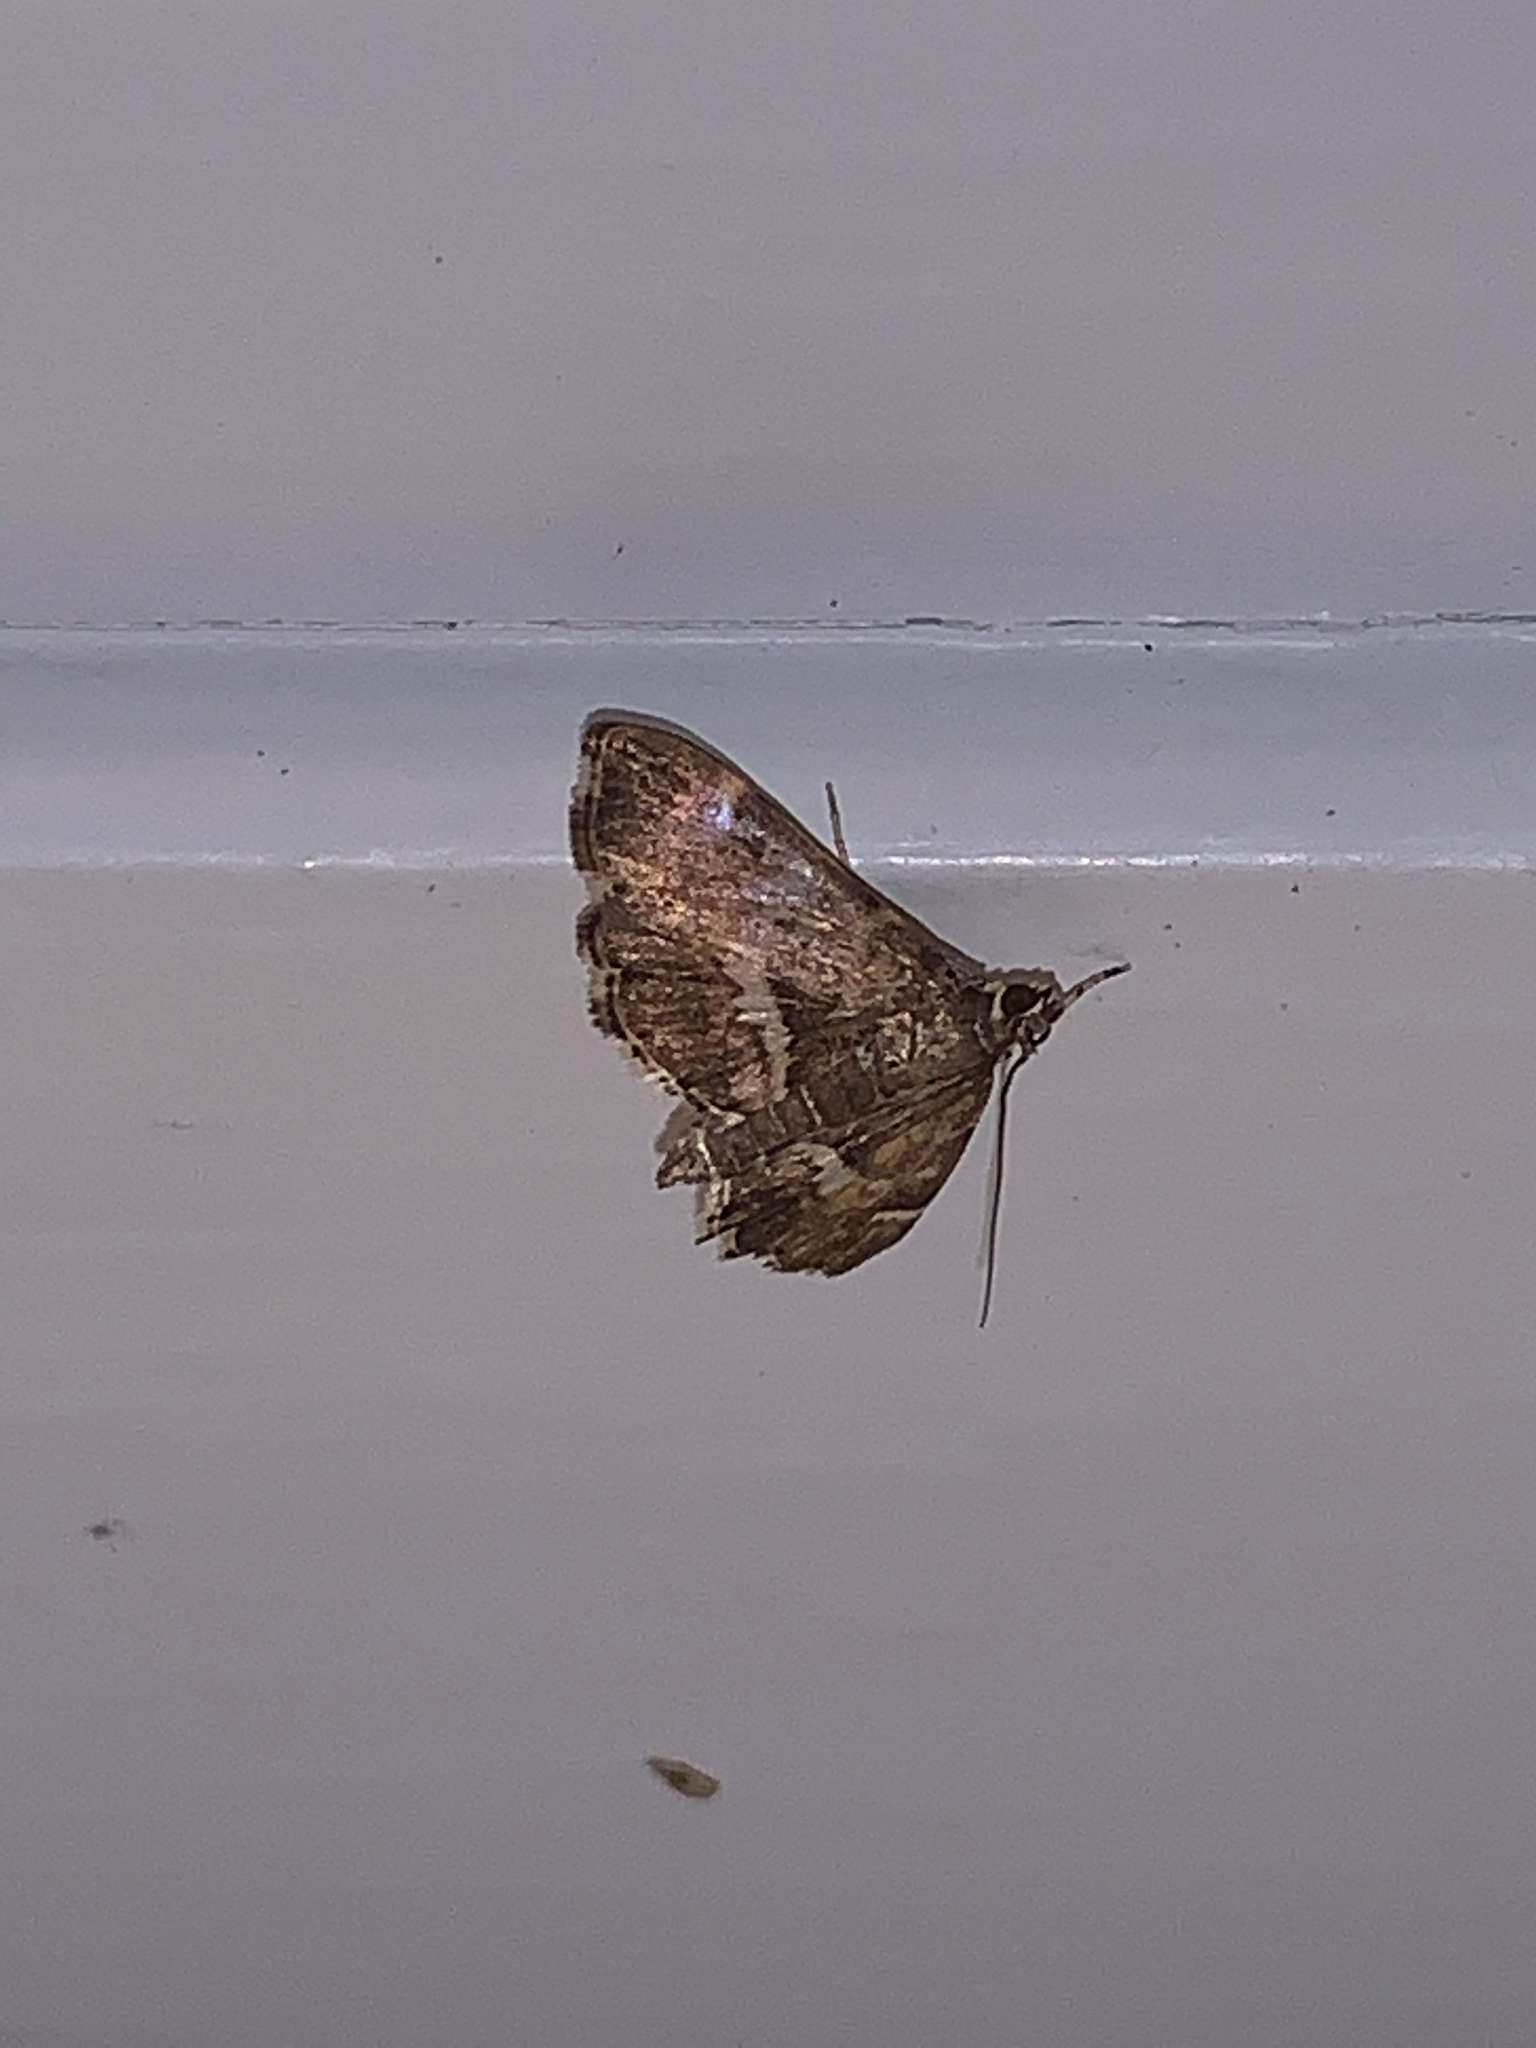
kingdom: Animalia
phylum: Arthropoda
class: Insecta
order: Lepidoptera
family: Crambidae
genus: Hymenia
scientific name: Hymenia perspectalis
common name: Spotted beet webworm
